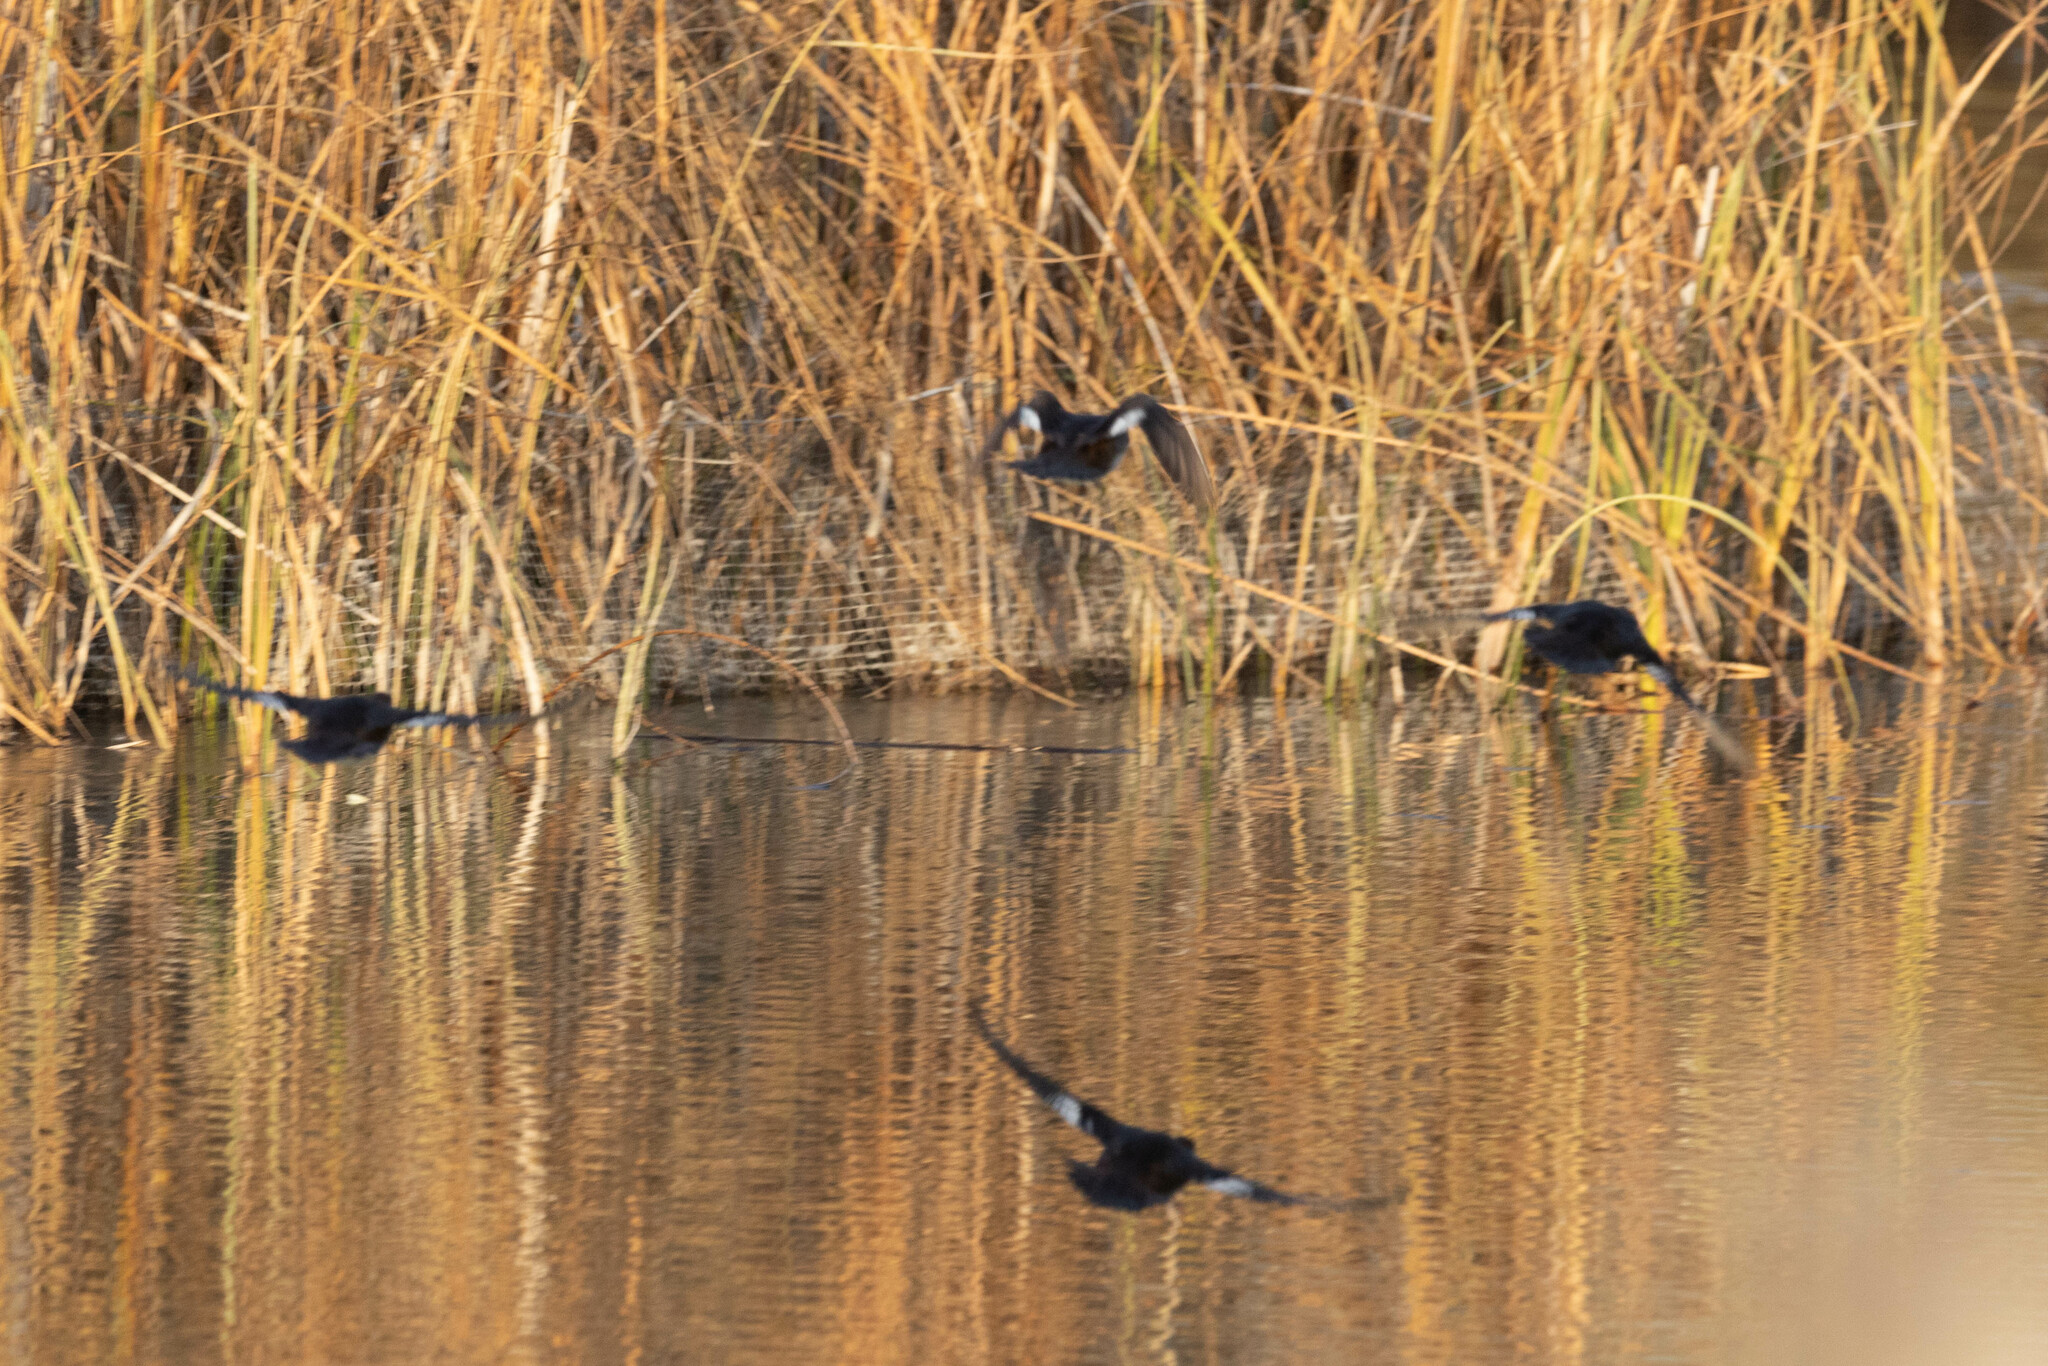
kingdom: Animalia
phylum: Chordata
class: Aves
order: Anseriformes
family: Anatidae
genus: Lophodytes
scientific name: Lophodytes cucullatus
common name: Hooded merganser
